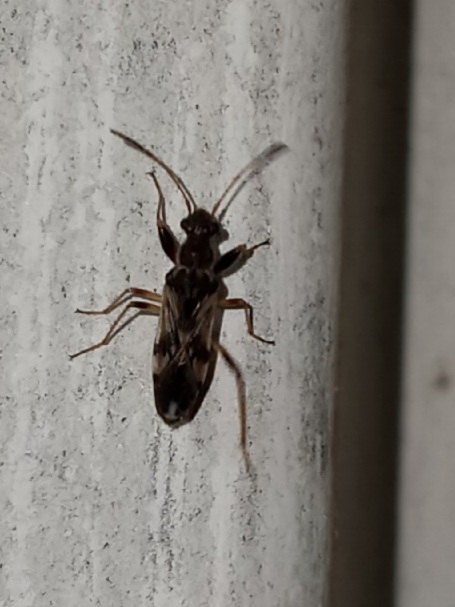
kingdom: Animalia
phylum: Arthropoda
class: Insecta
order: Hemiptera
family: Rhyparochromidae
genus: Neopamera
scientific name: Neopamera bilobata
